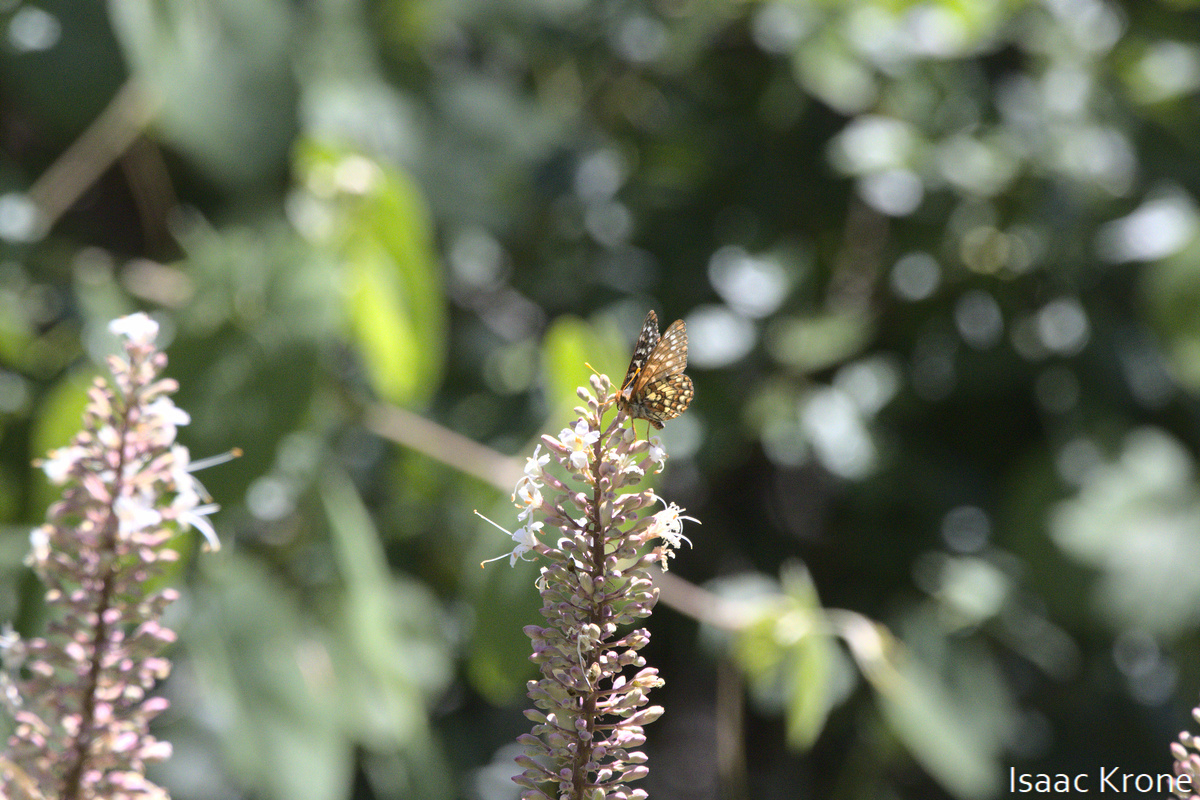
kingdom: Animalia
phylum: Arthropoda
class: Insecta
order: Lepidoptera
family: Nymphalidae
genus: Occidryas
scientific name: Occidryas chalcedona
